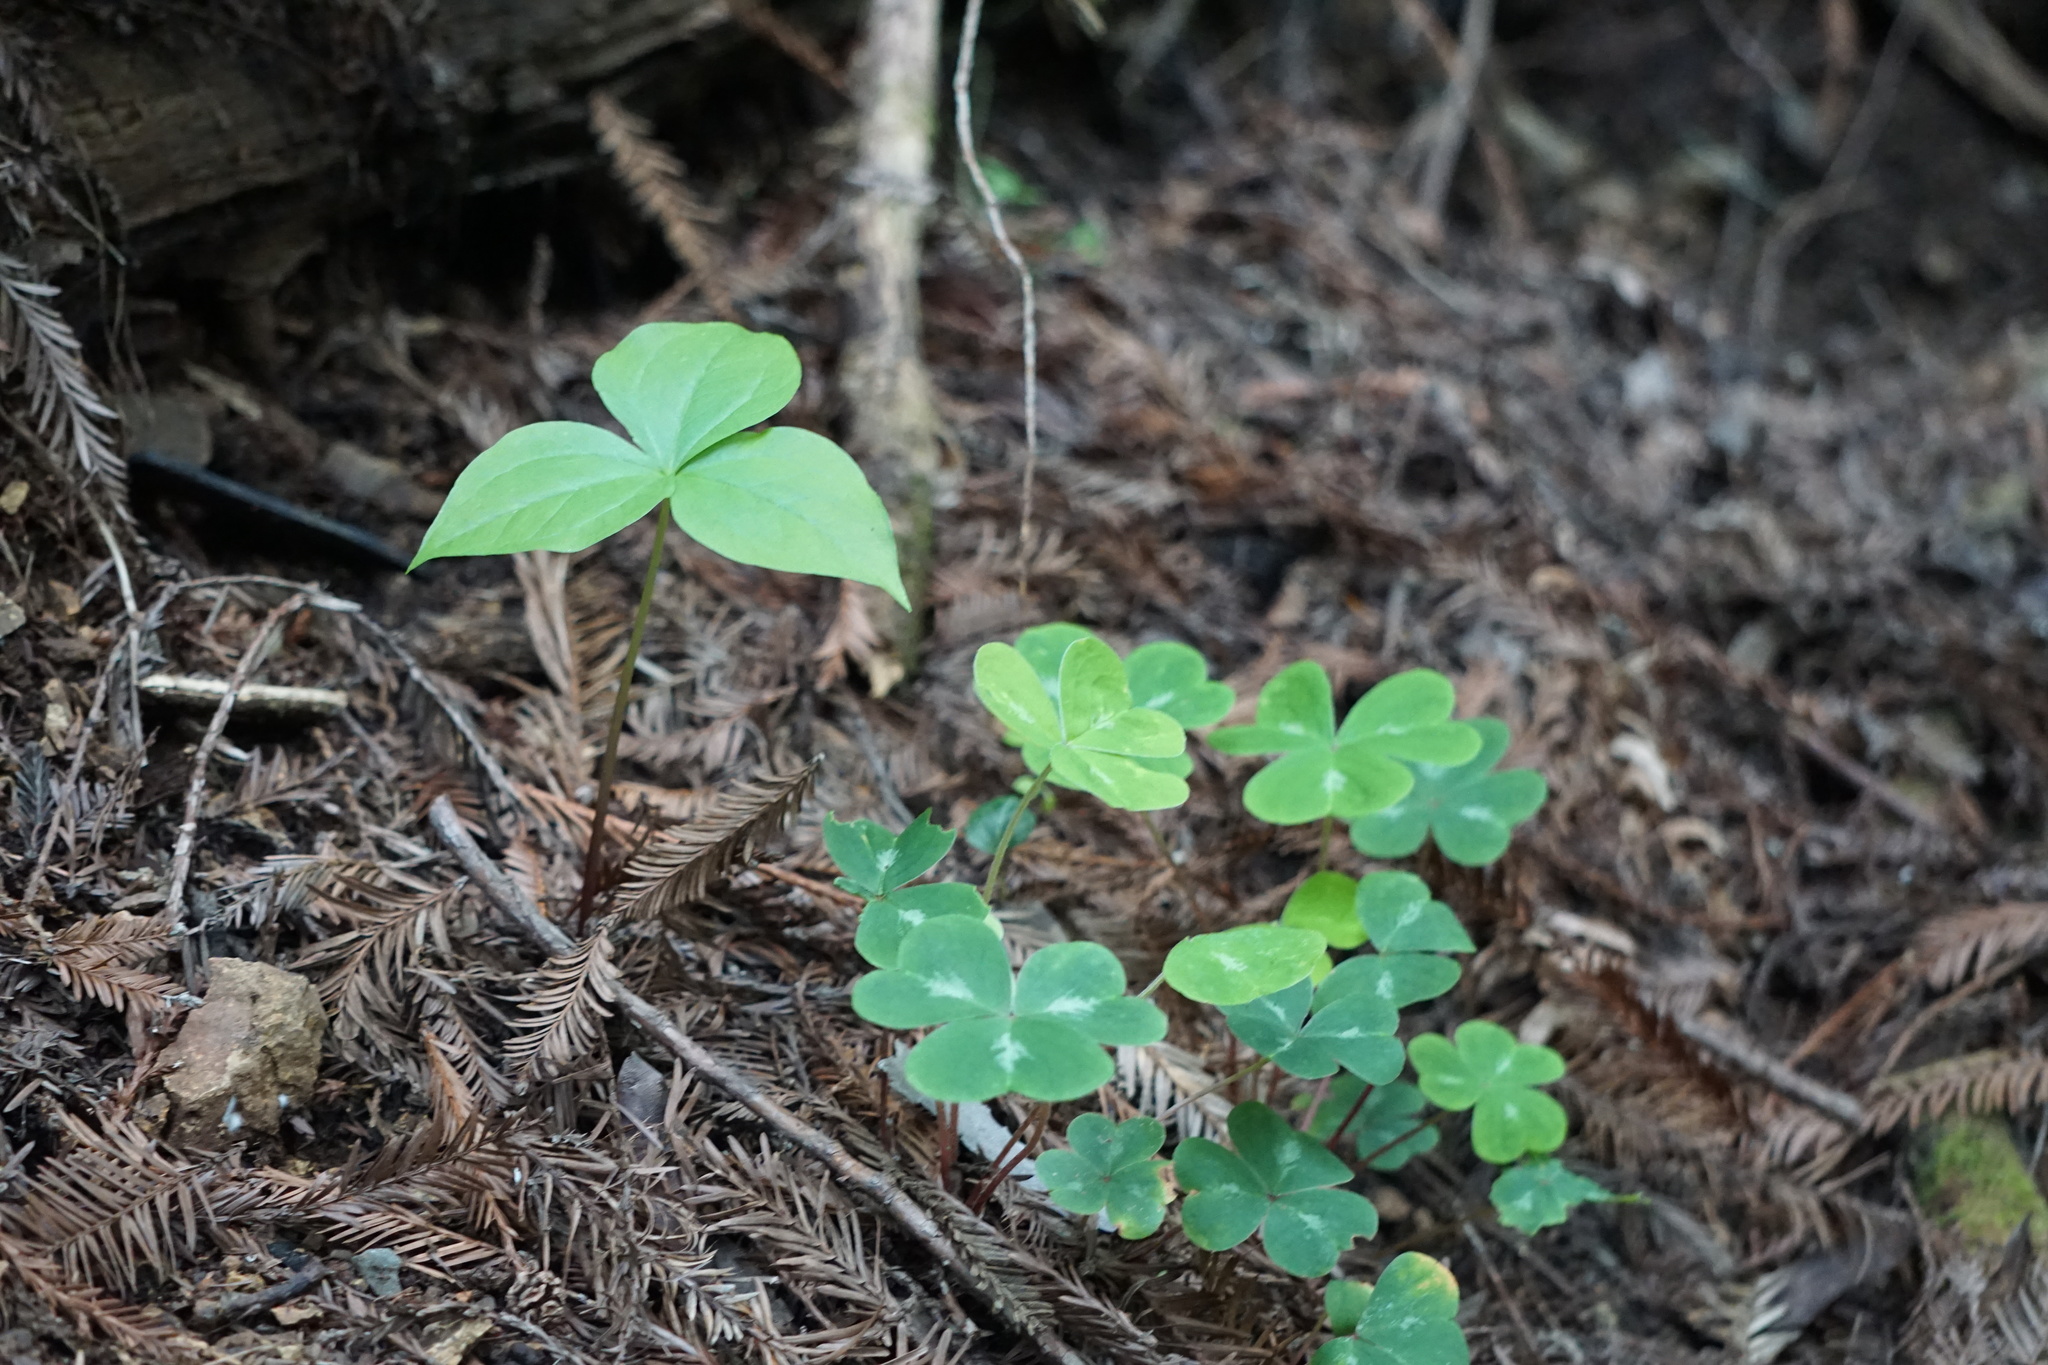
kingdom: Plantae
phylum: Tracheophyta
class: Liliopsida
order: Liliales
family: Melanthiaceae
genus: Trillium
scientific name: Trillium ovatum
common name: Pacific trillium
